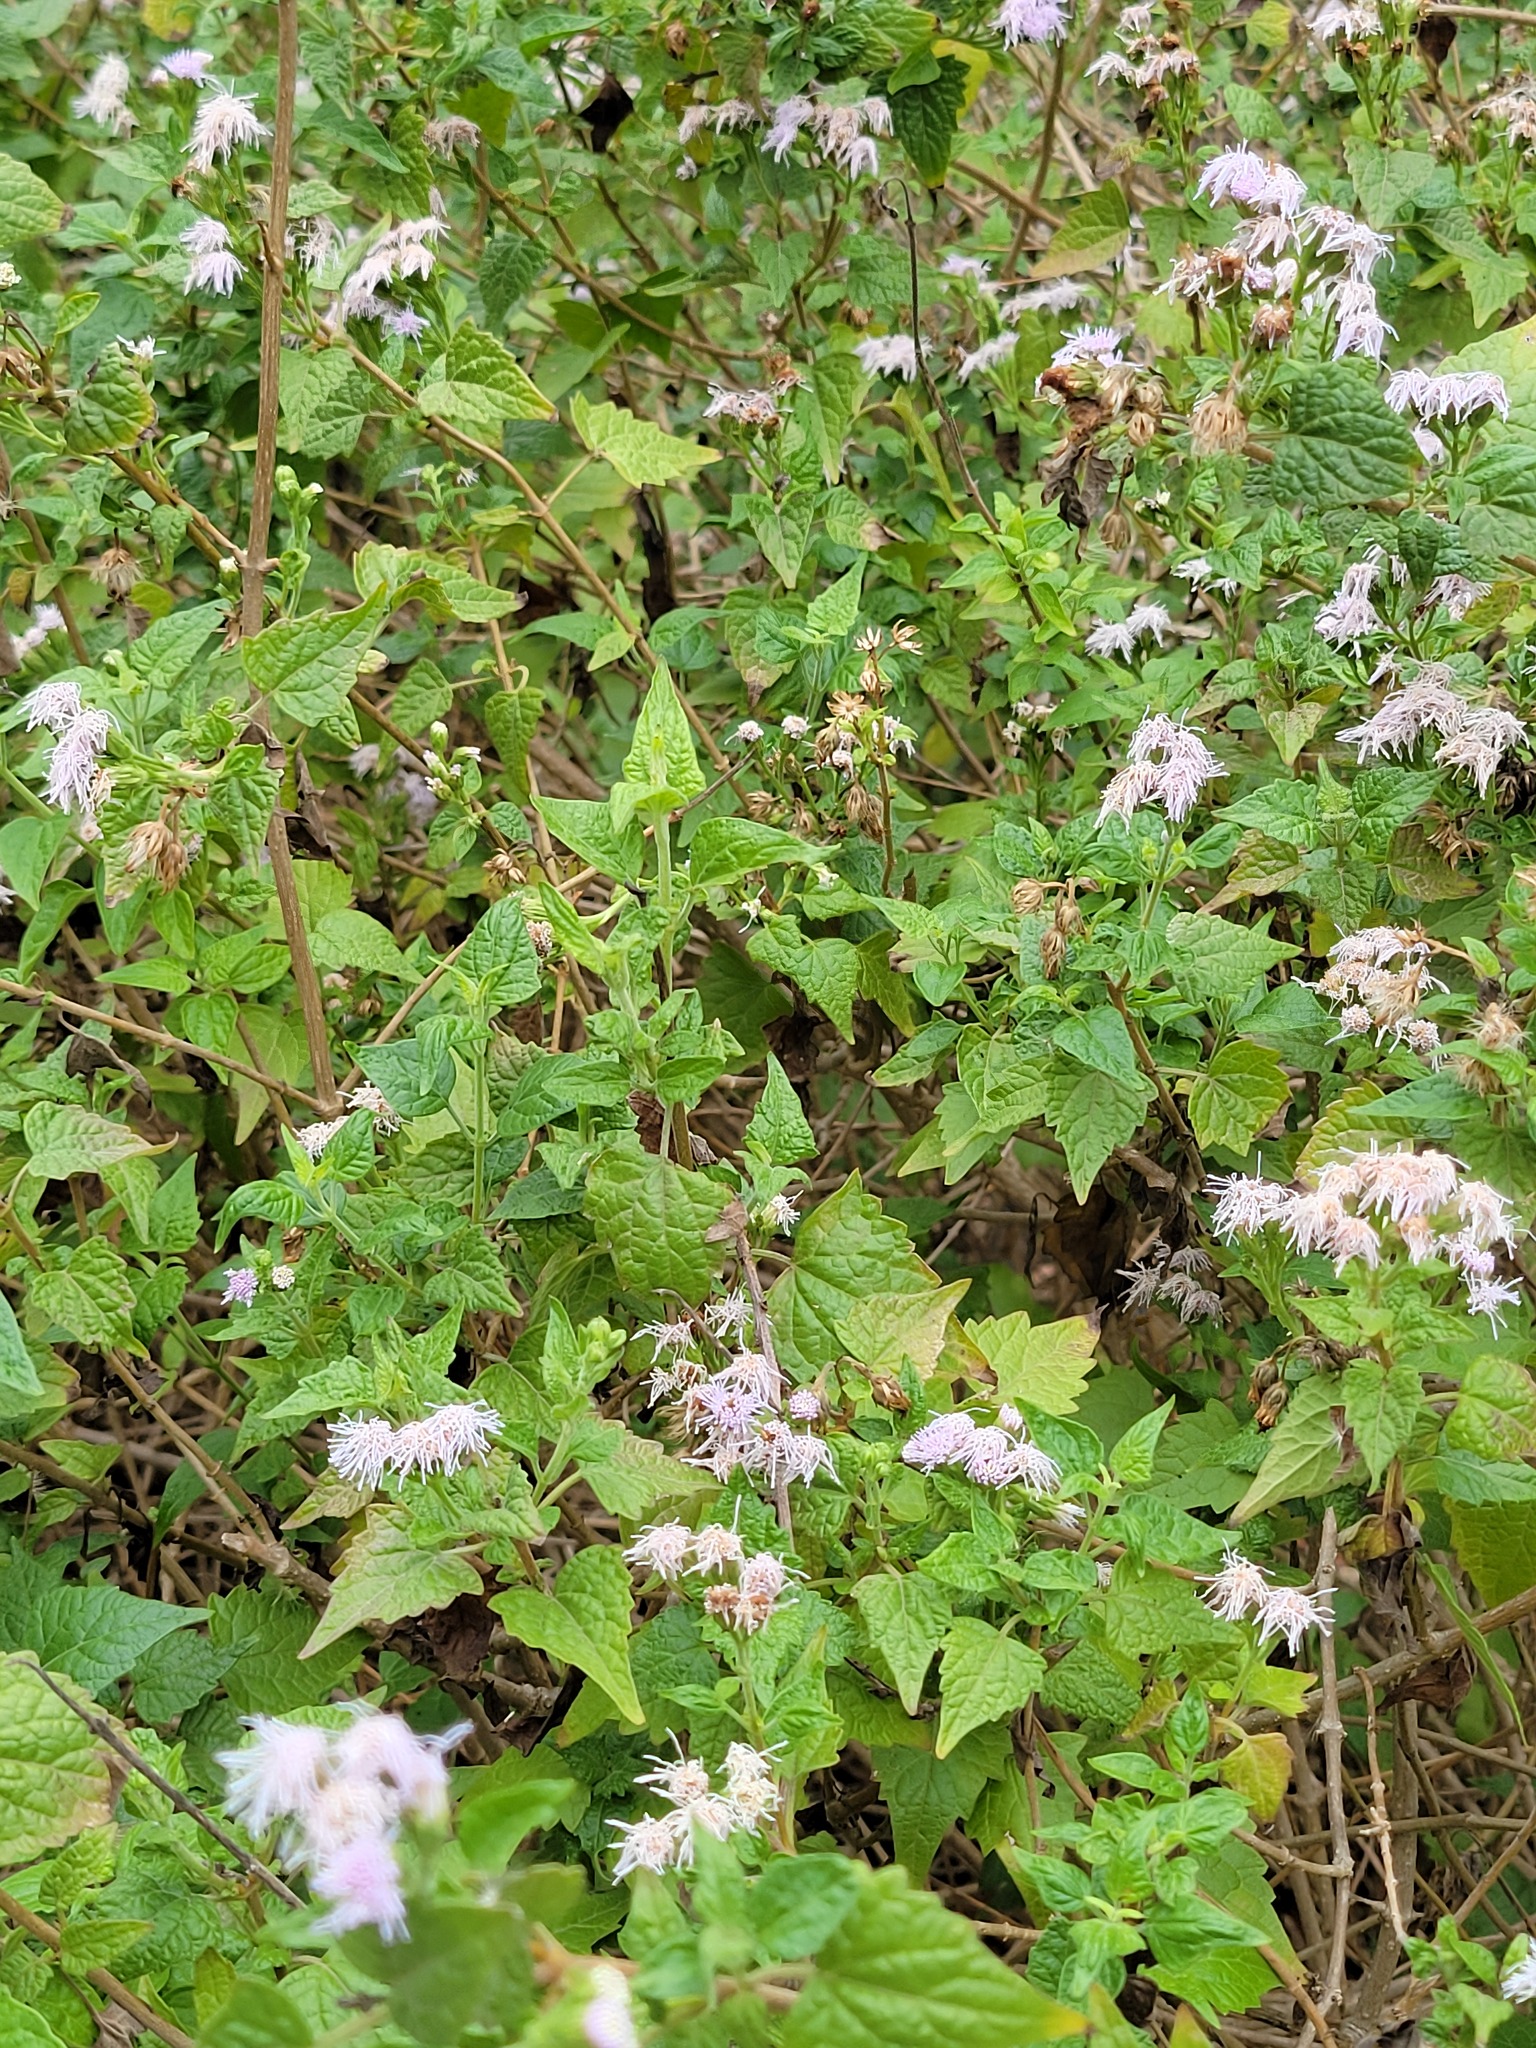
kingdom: Plantae
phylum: Tracheophyta
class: Magnoliopsida
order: Asterales
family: Asteraceae
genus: Tamaulipa
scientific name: Tamaulipa azurea
